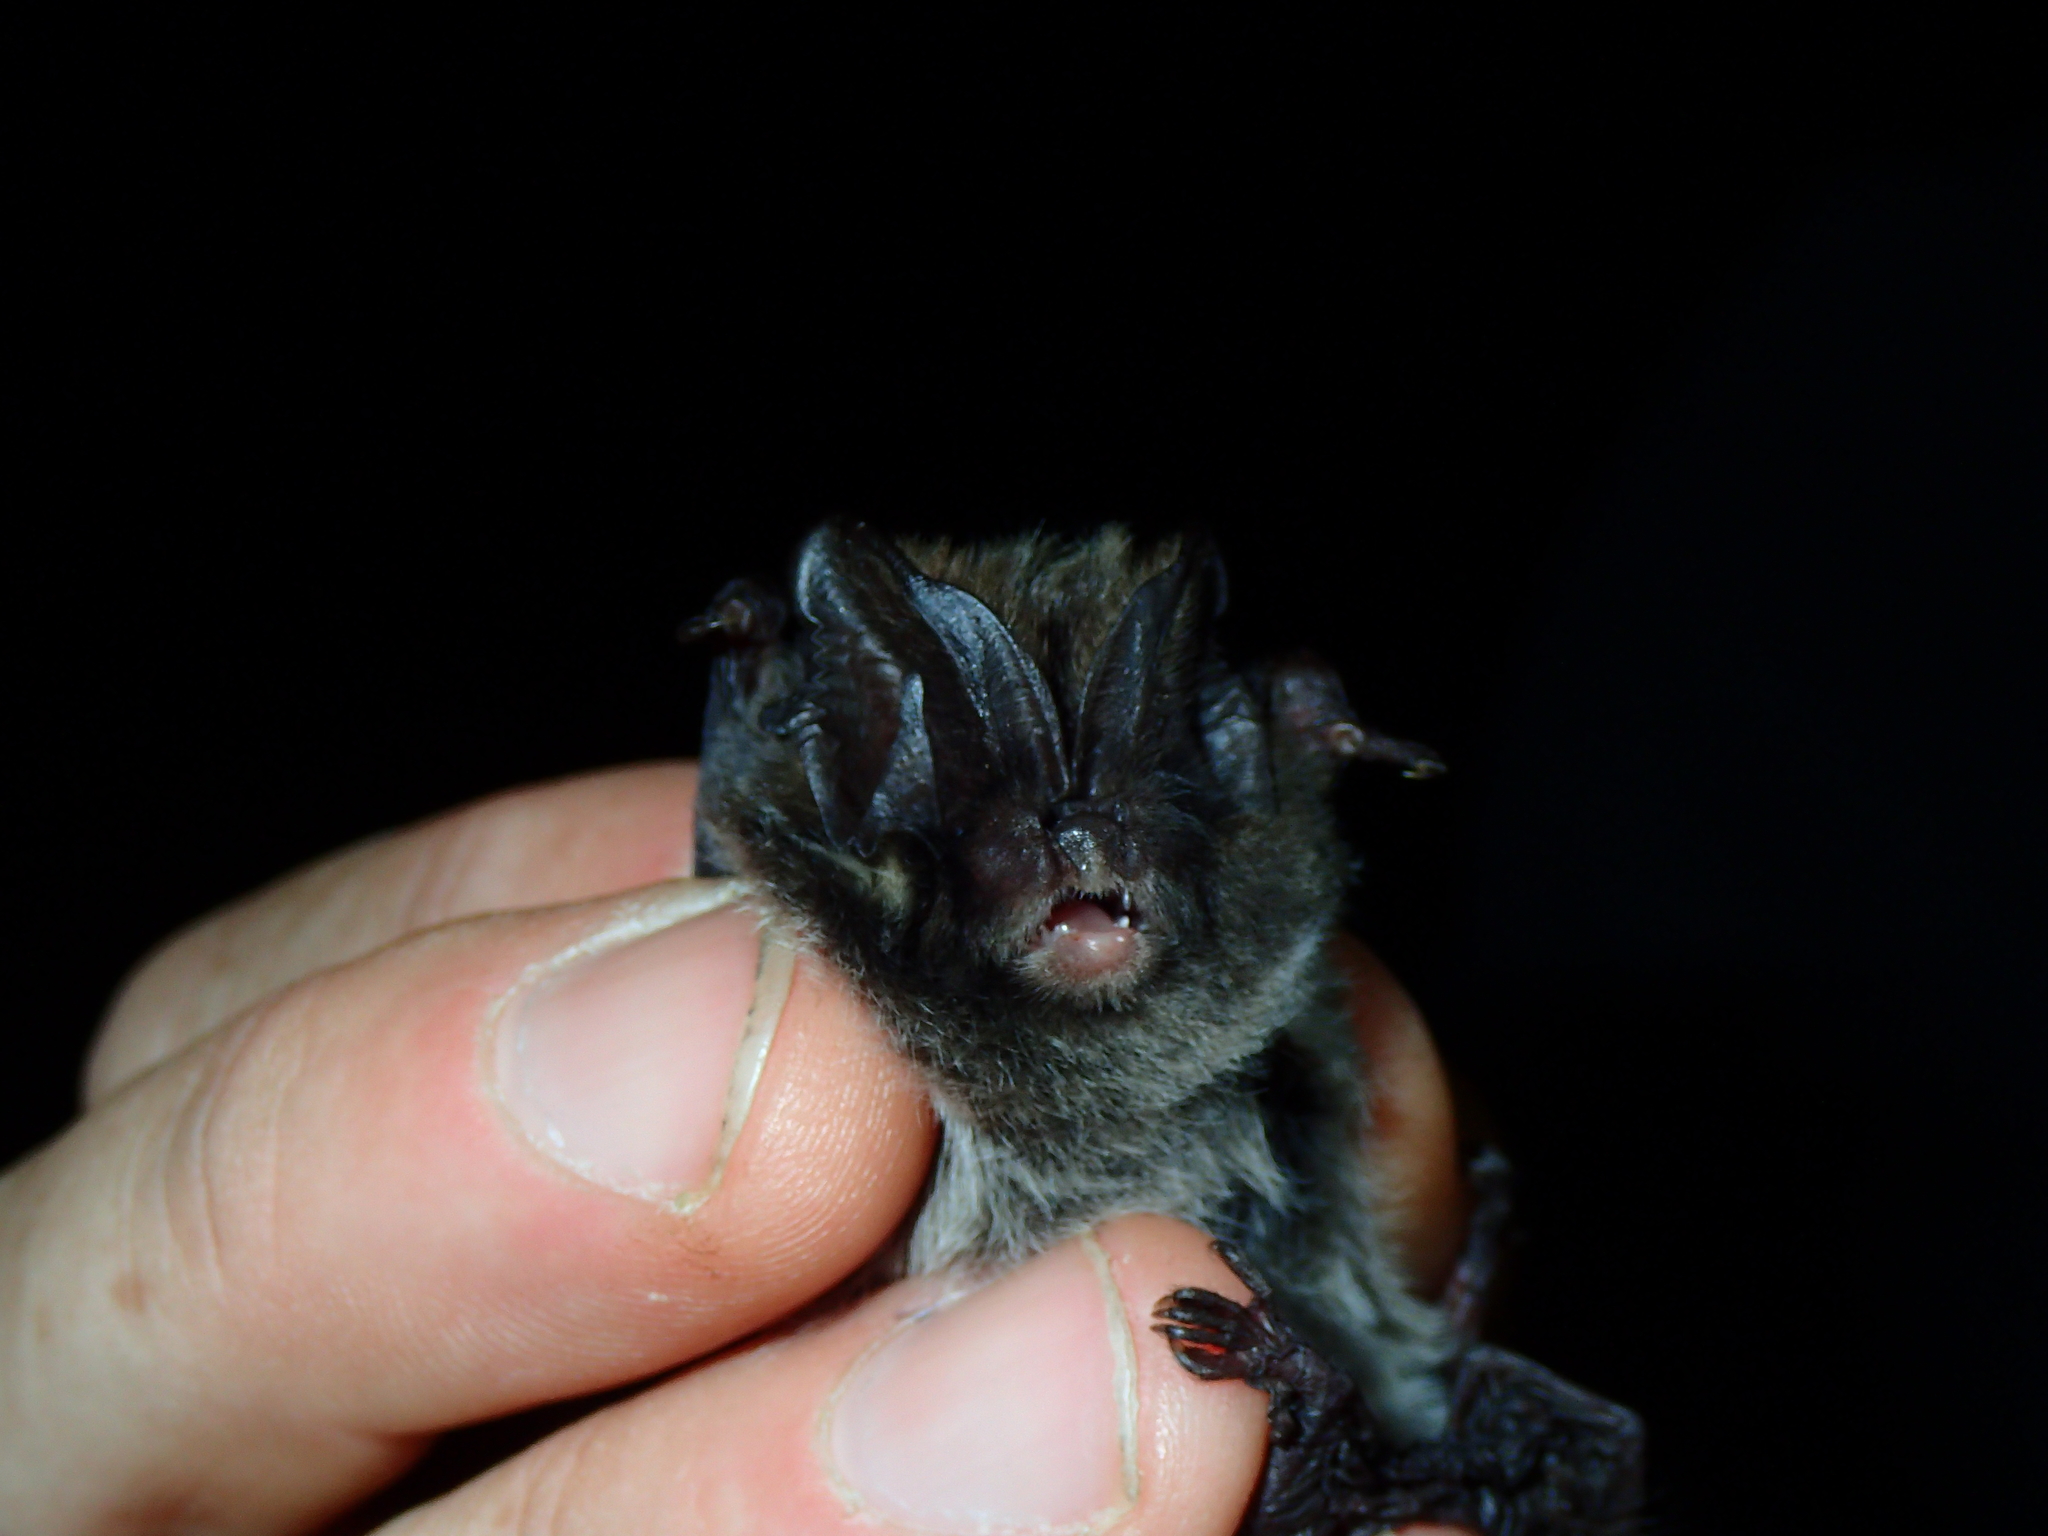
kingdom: Animalia
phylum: Chordata
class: Mammalia
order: Chiroptera
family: Vespertilionidae
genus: Barbastella
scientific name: Barbastella barbastellus
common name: Western barbastelle
